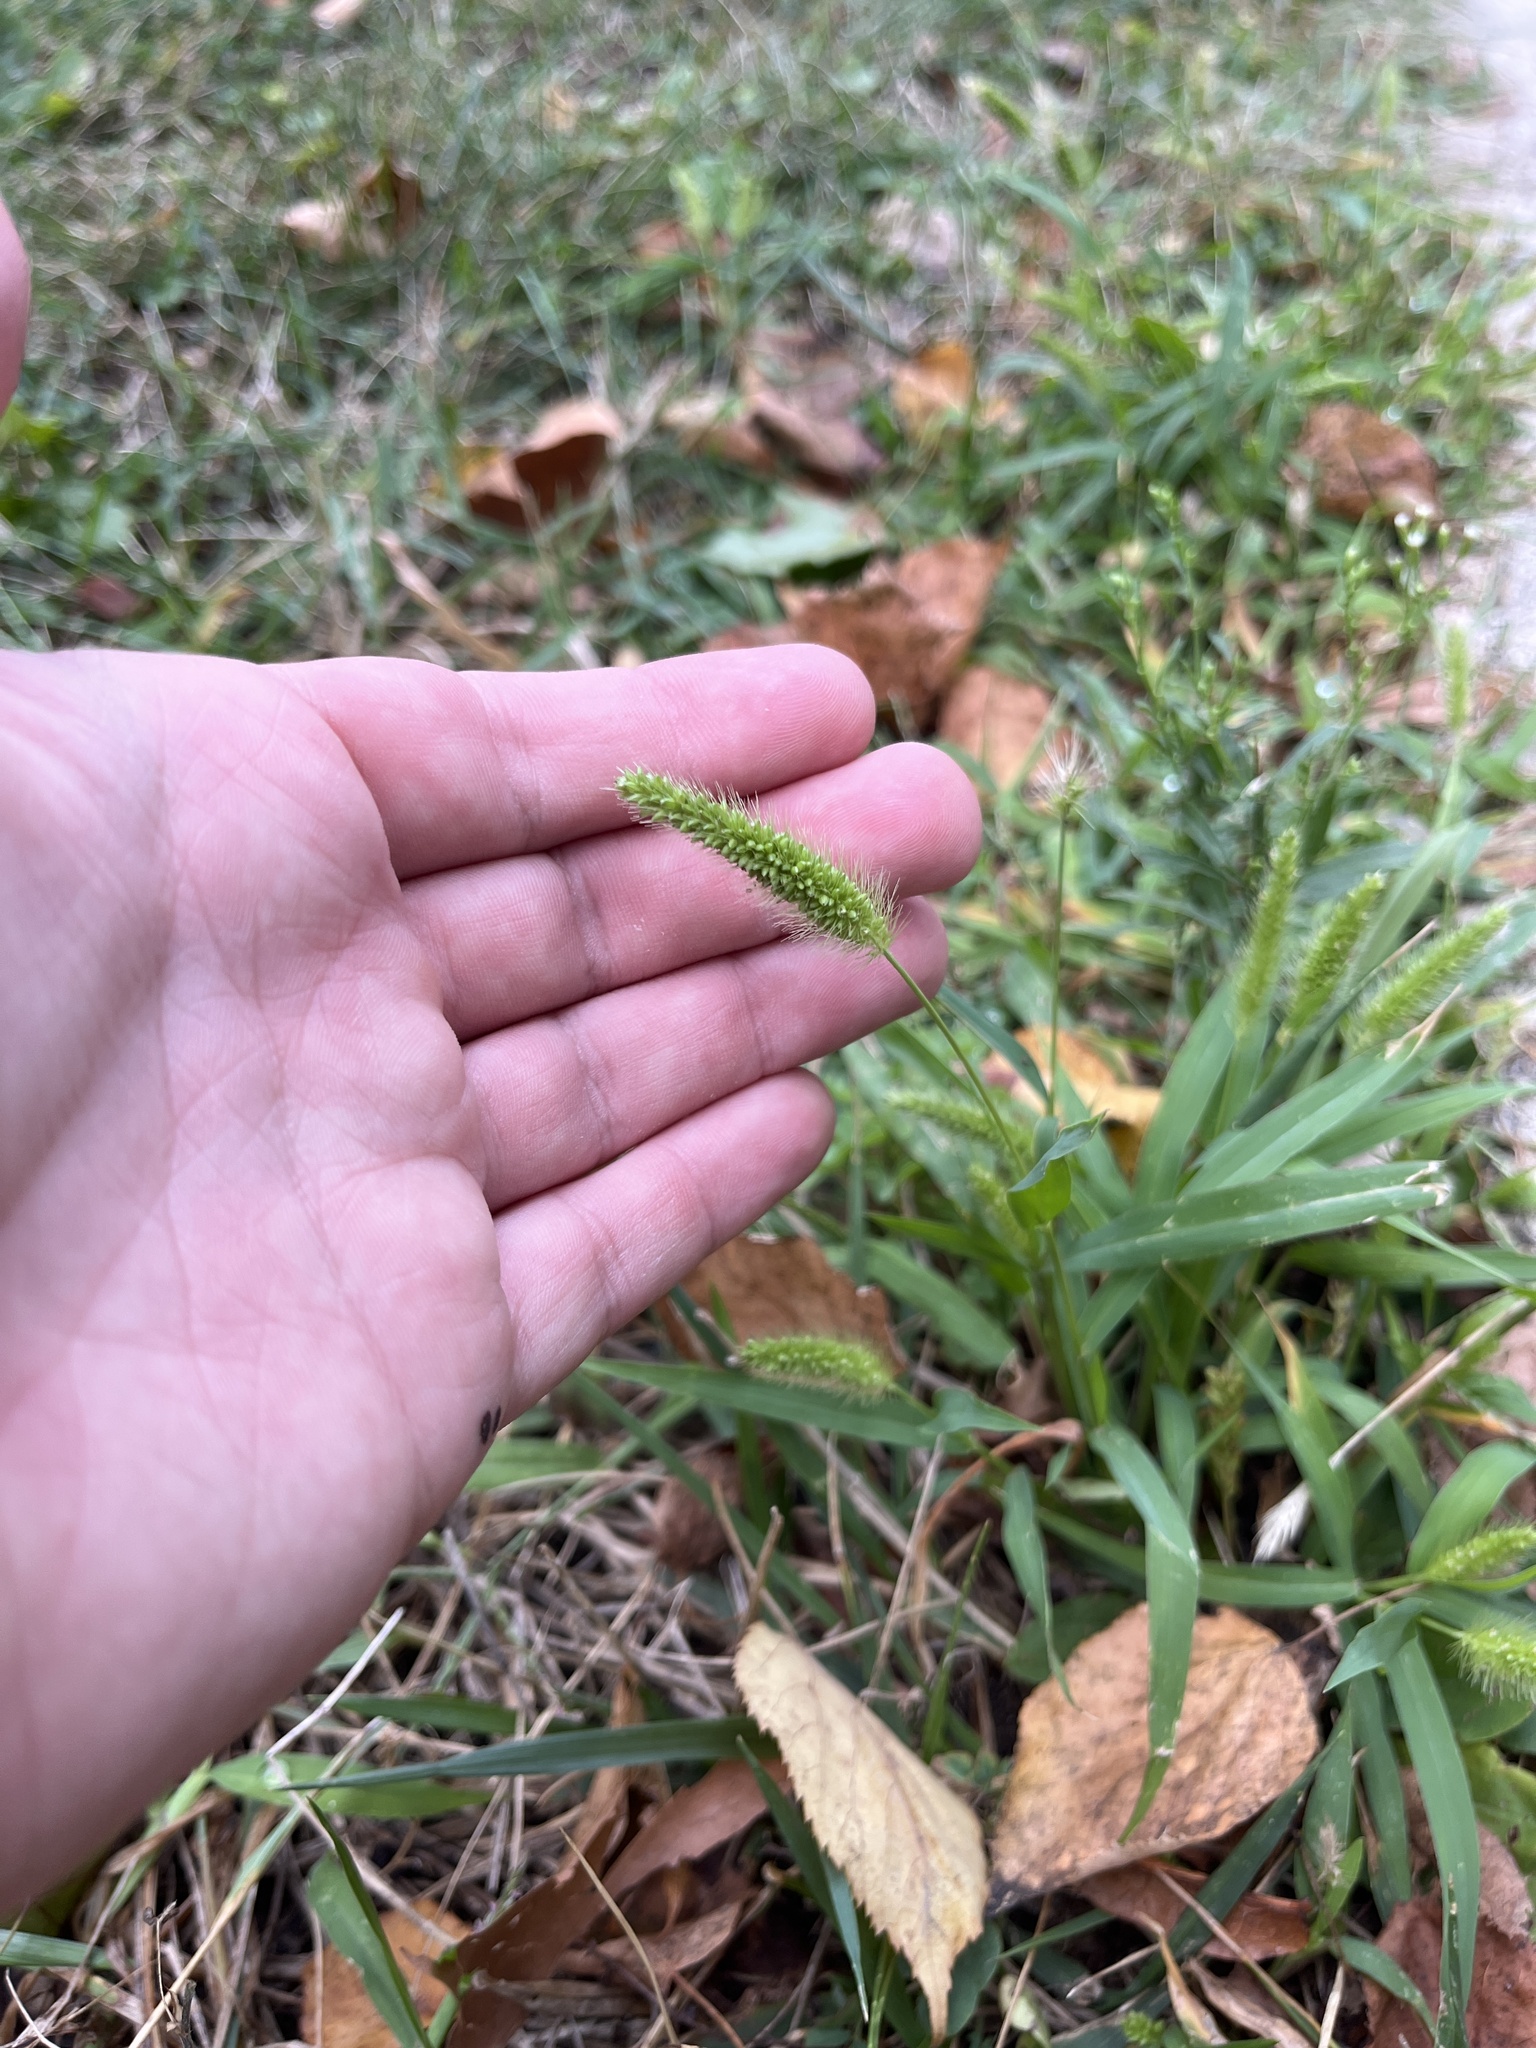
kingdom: Plantae
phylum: Tracheophyta
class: Liliopsida
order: Poales
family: Poaceae
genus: Setaria
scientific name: Setaria viridis
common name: Green bristlegrass
